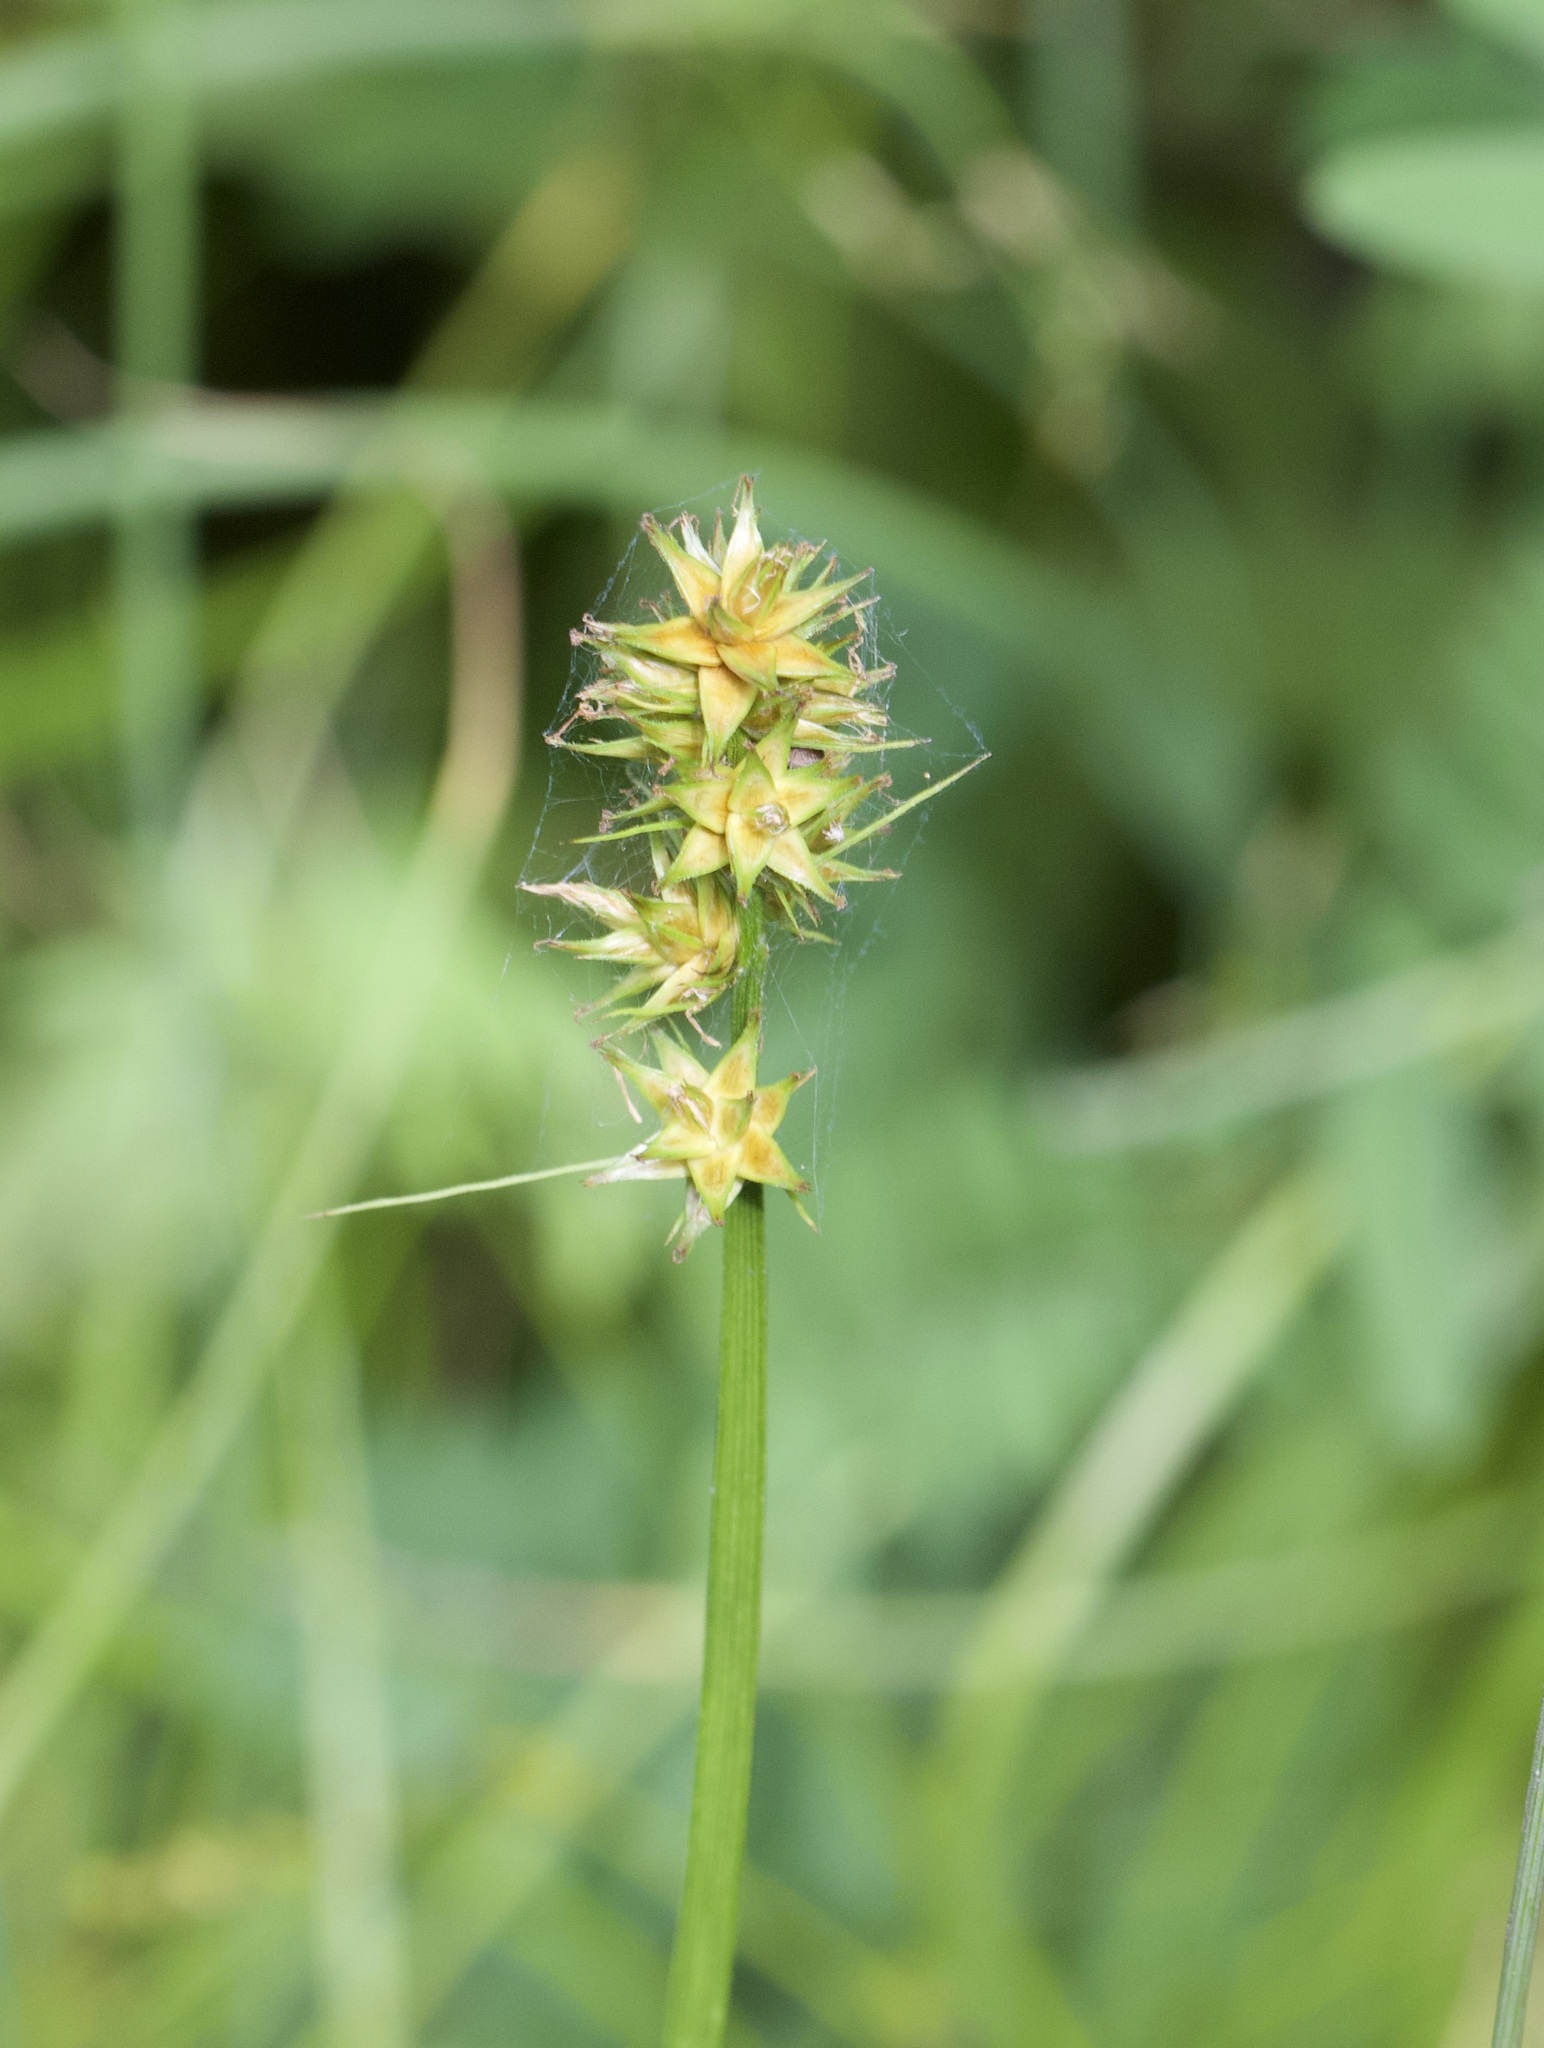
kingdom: Plantae
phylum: Tracheophyta
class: Liliopsida
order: Poales
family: Cyperaceae
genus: Carex
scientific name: Carex otrubae
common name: False fox-sedge
